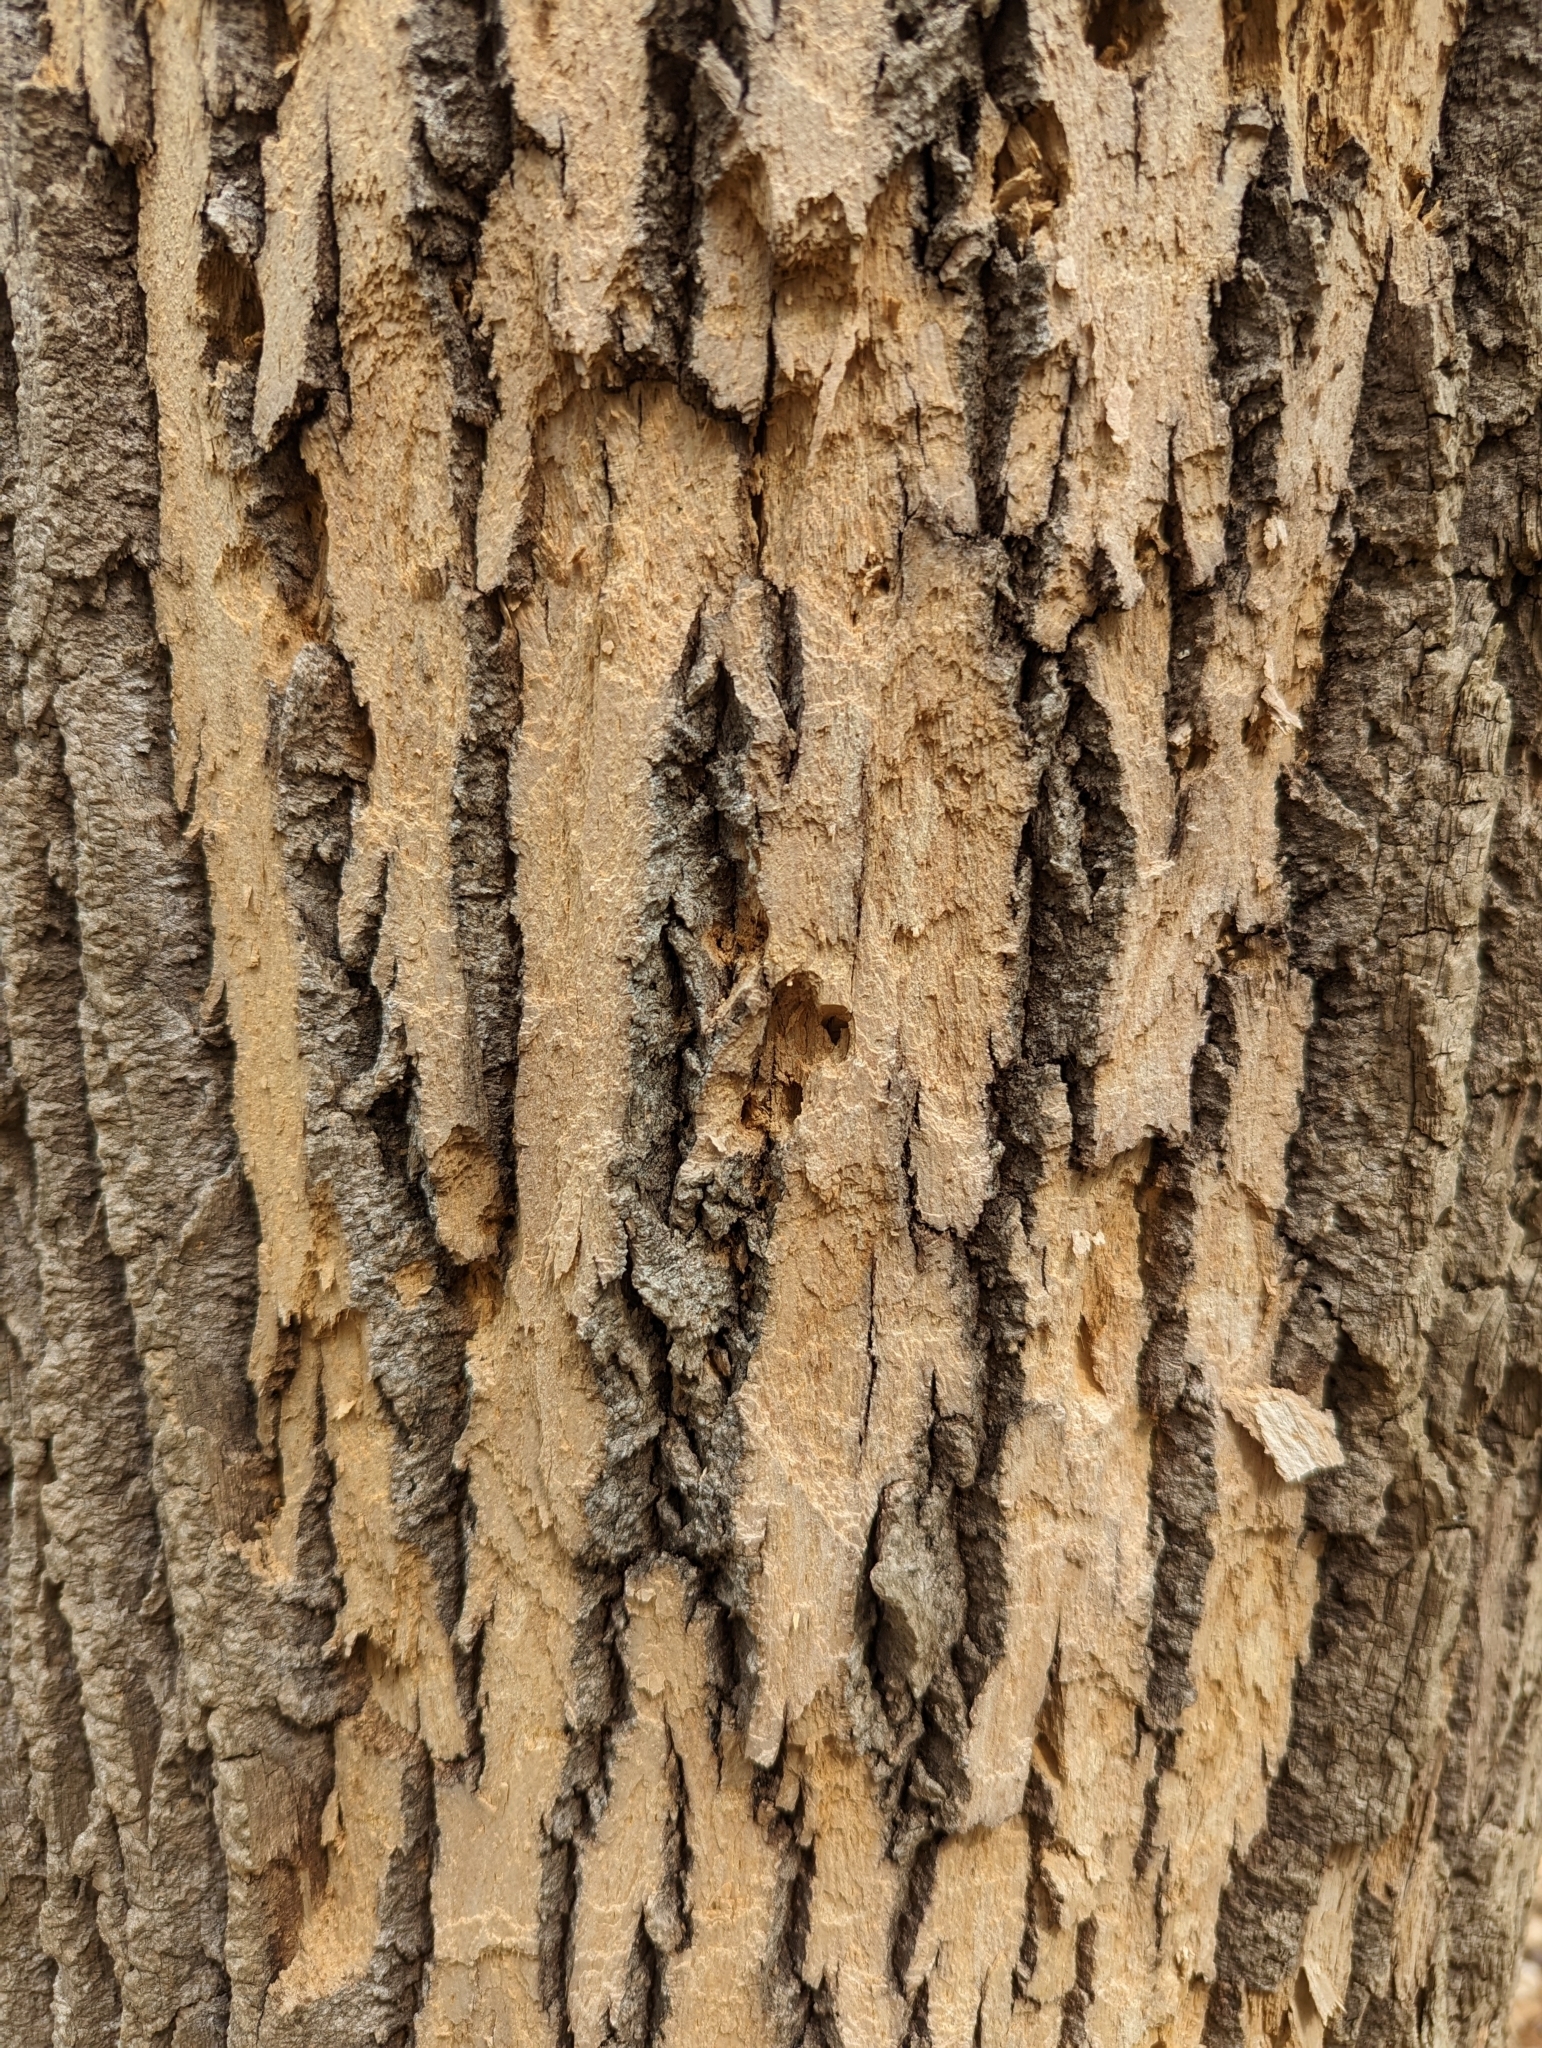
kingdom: Animalia
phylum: Arthropoda
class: Insecta
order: Coleoptera
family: Buprestidae
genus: Agrilus
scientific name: Agrilus planipennis
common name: Emerald ash borer
